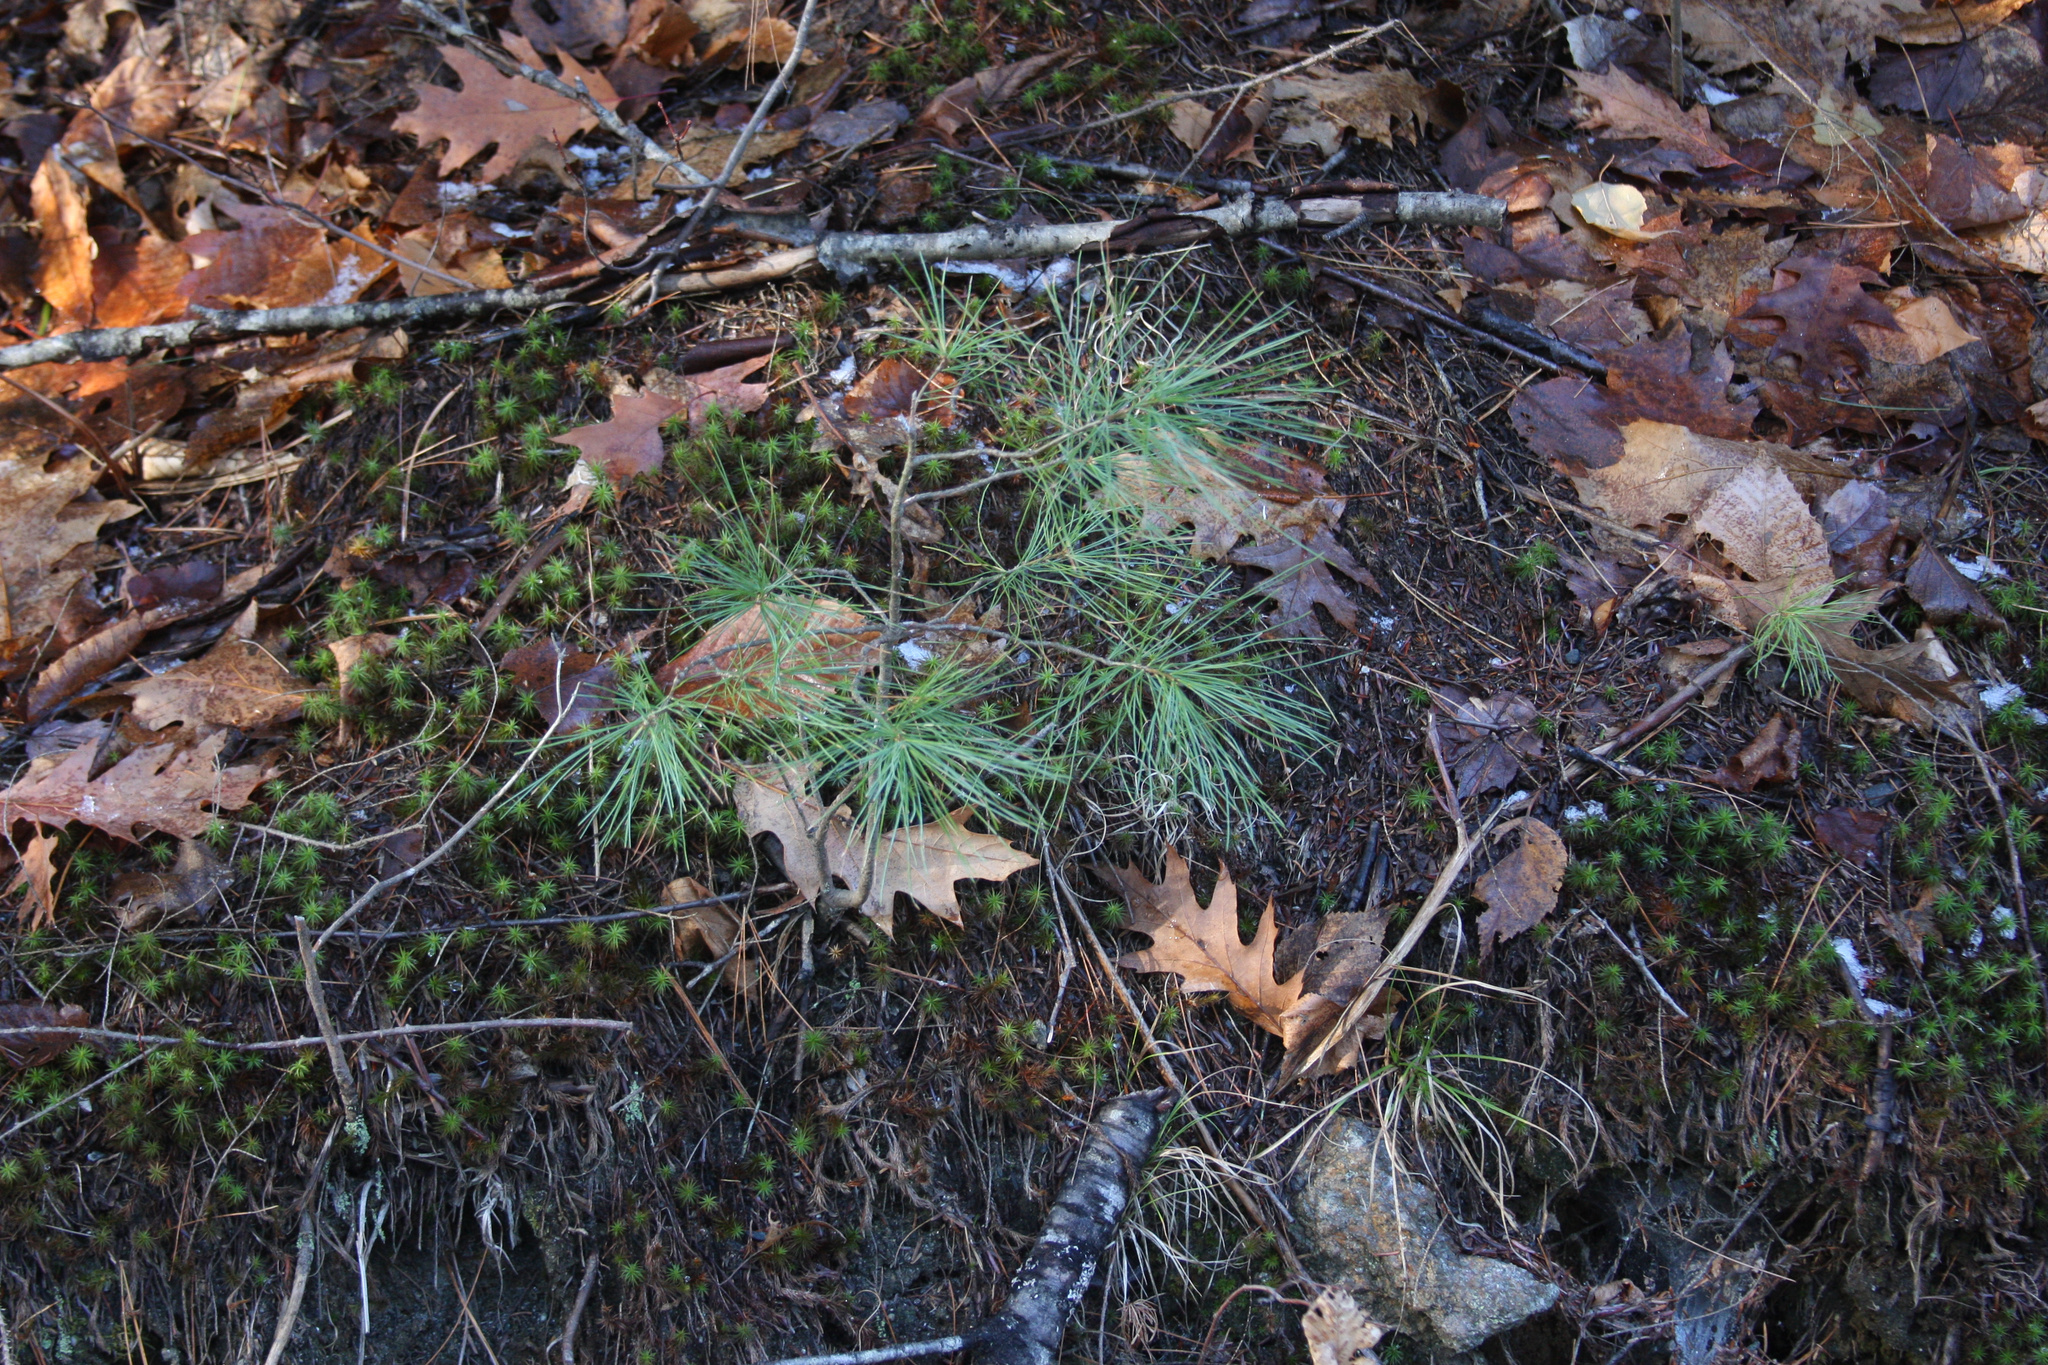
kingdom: Plantae
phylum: Tracheophyta
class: Pinopsida
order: Pinales
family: Pinaceae
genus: Pinus
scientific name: Pinus strobus
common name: Weymouth pine
